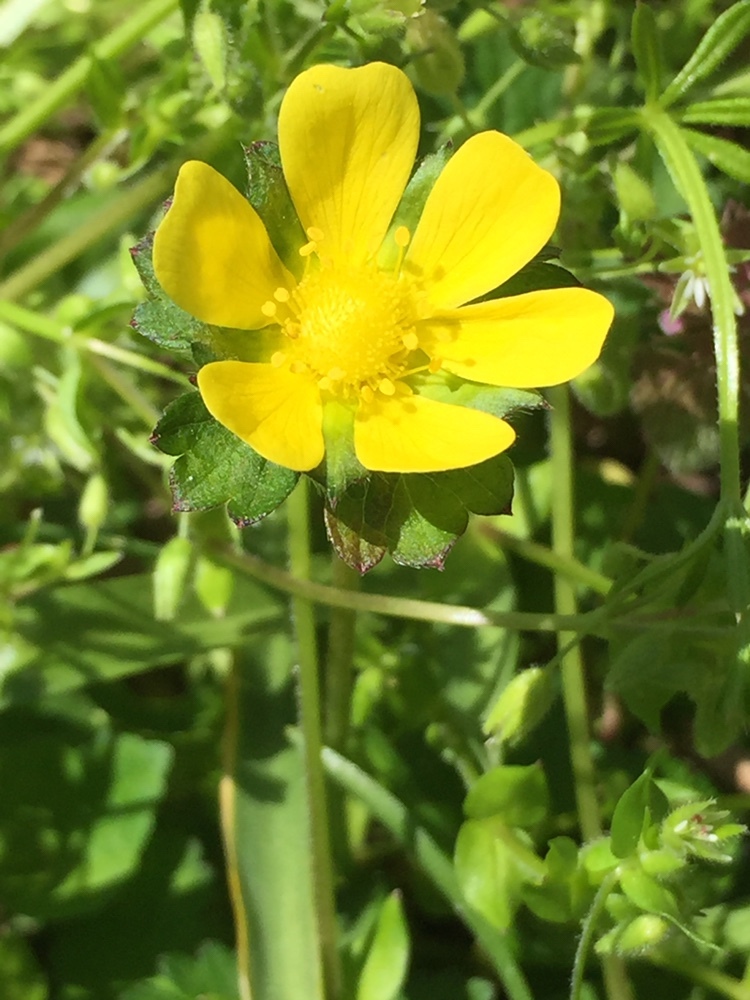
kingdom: Plantae
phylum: Tracheophyta
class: Magnoliopsida
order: Rosales
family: Rosaceae
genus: Potentilla
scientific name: Potentilla indica
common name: Yellow-flowered strawberry
